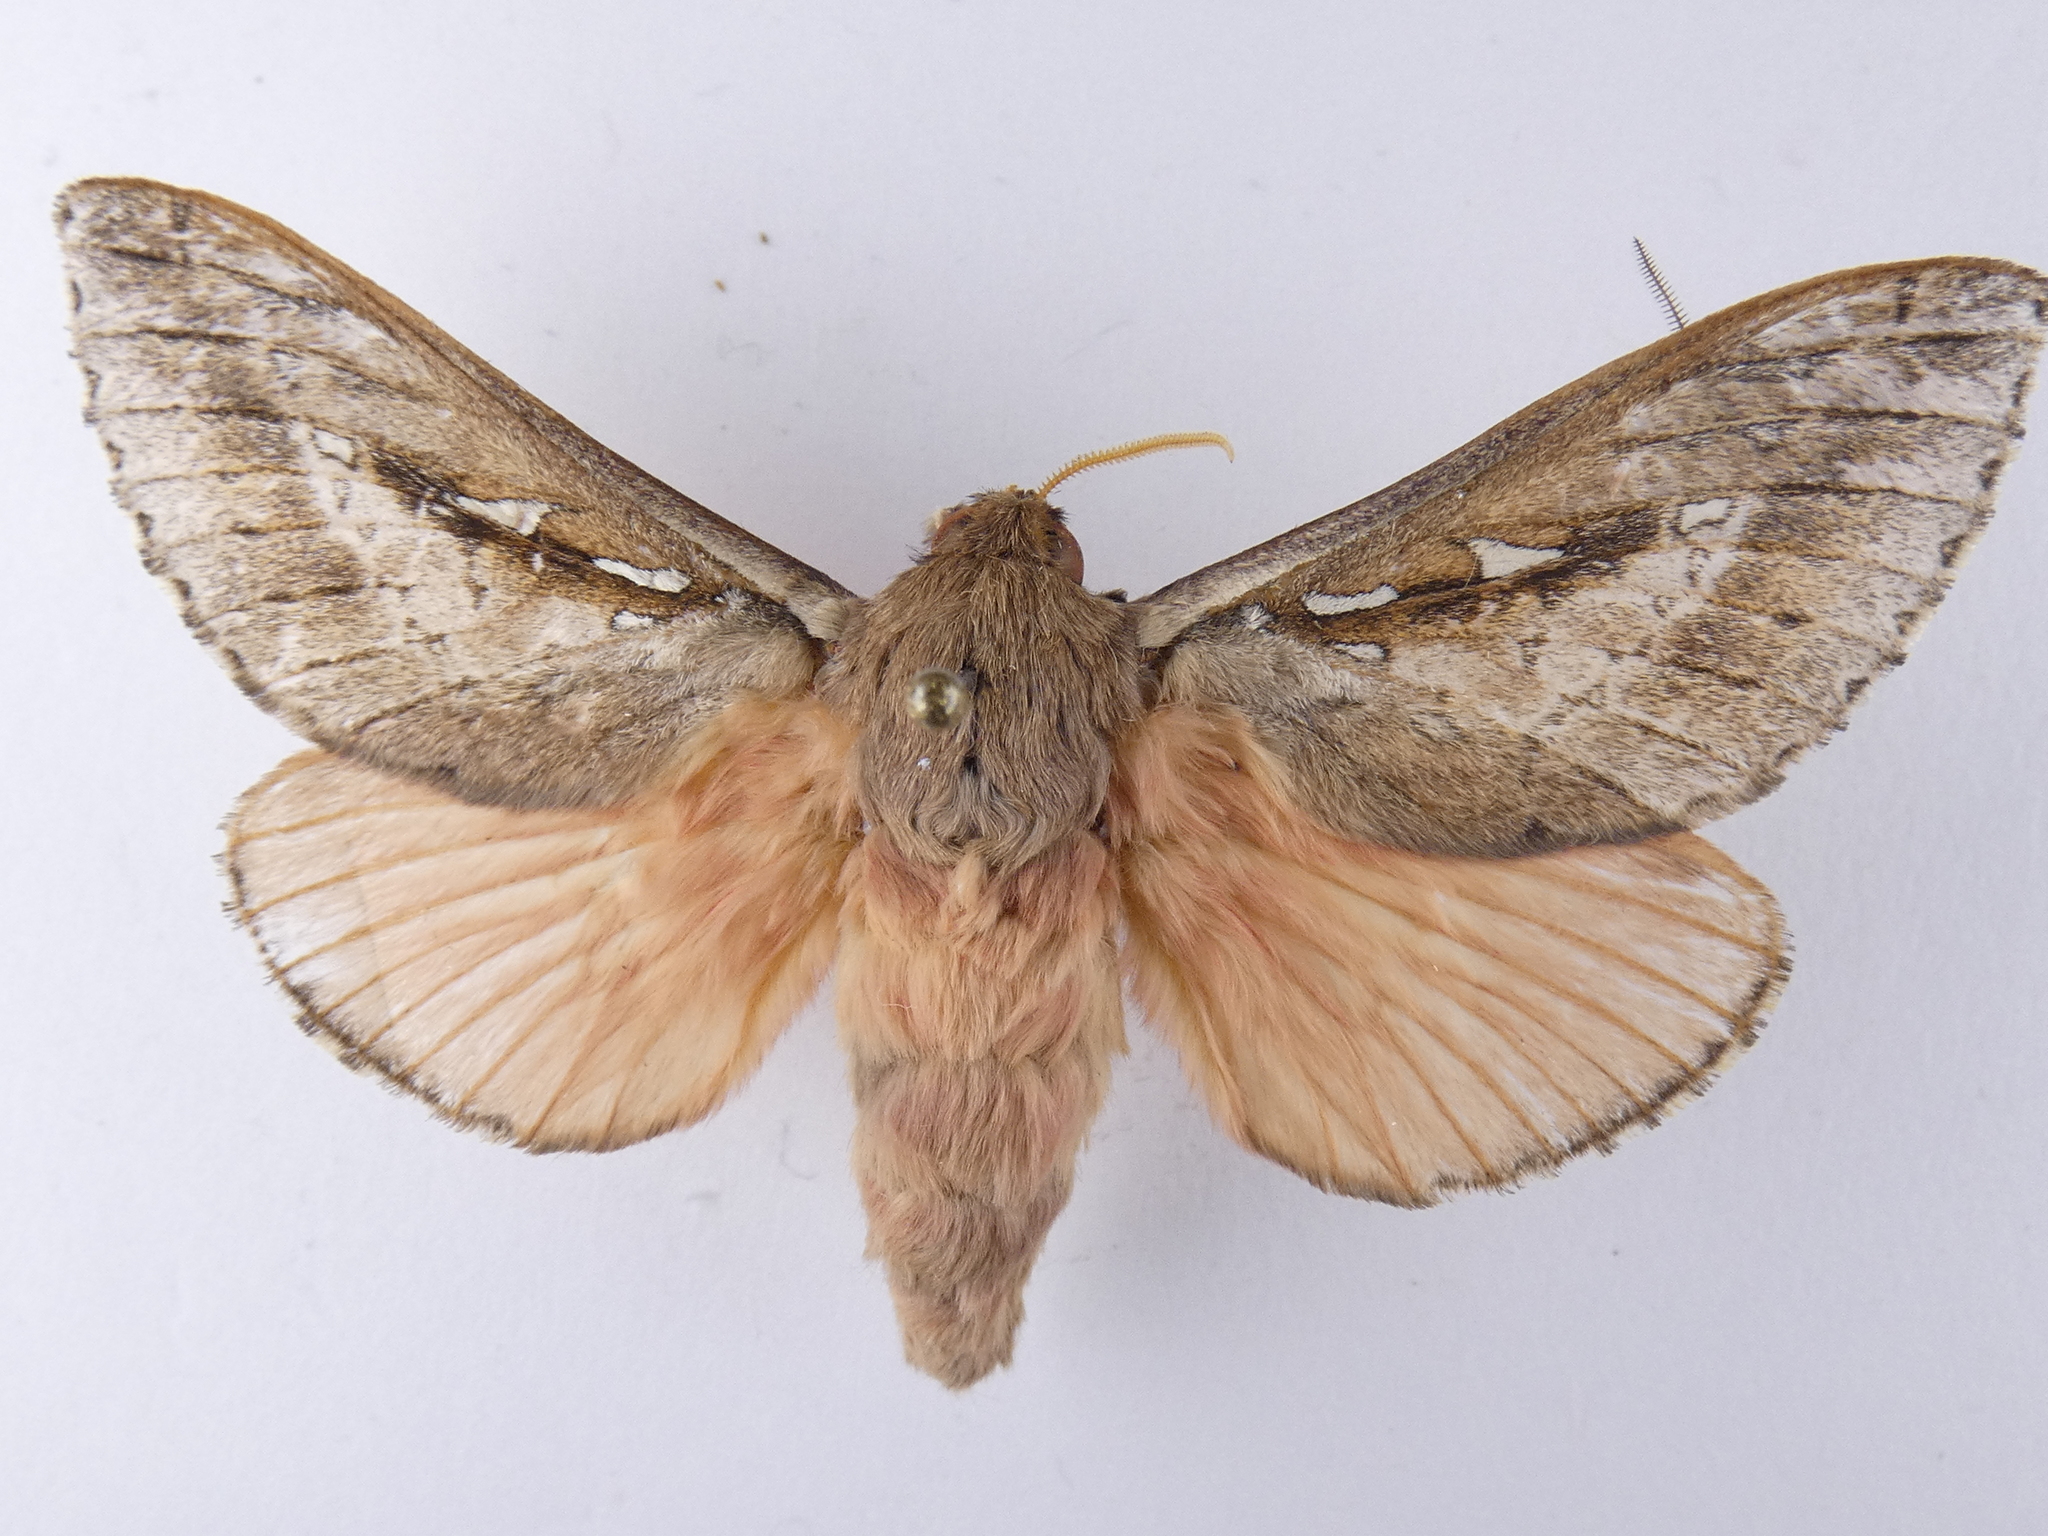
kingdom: Animalia
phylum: Arthropoda
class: Insecta
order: Lepidoptera
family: Hepialidae
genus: Wiseana
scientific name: Wiseana signata
